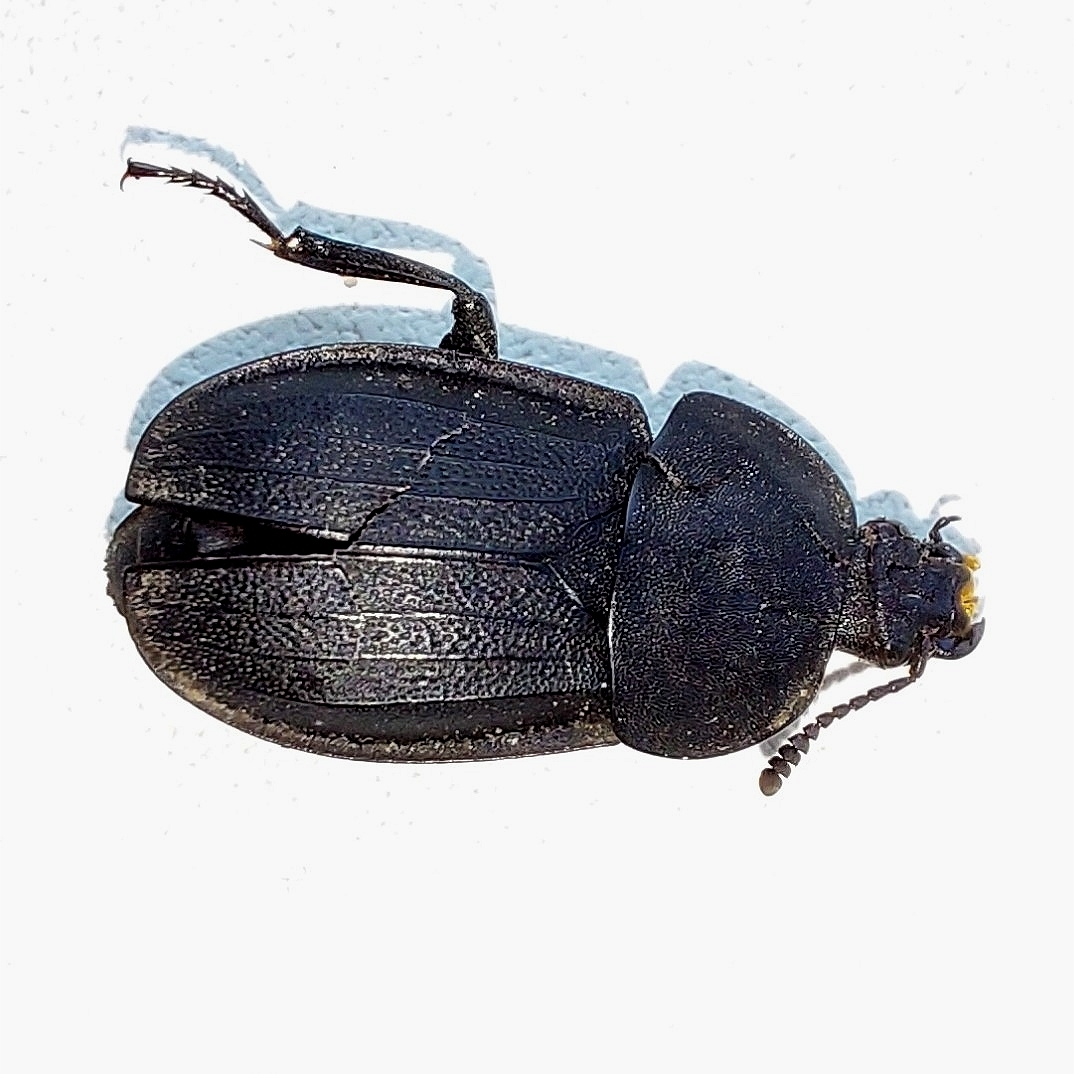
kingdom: Animalia
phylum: Arthropoda
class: Insecta
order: Coleoptera
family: Staphylinidae
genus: Silpha
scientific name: Silpha obscura
